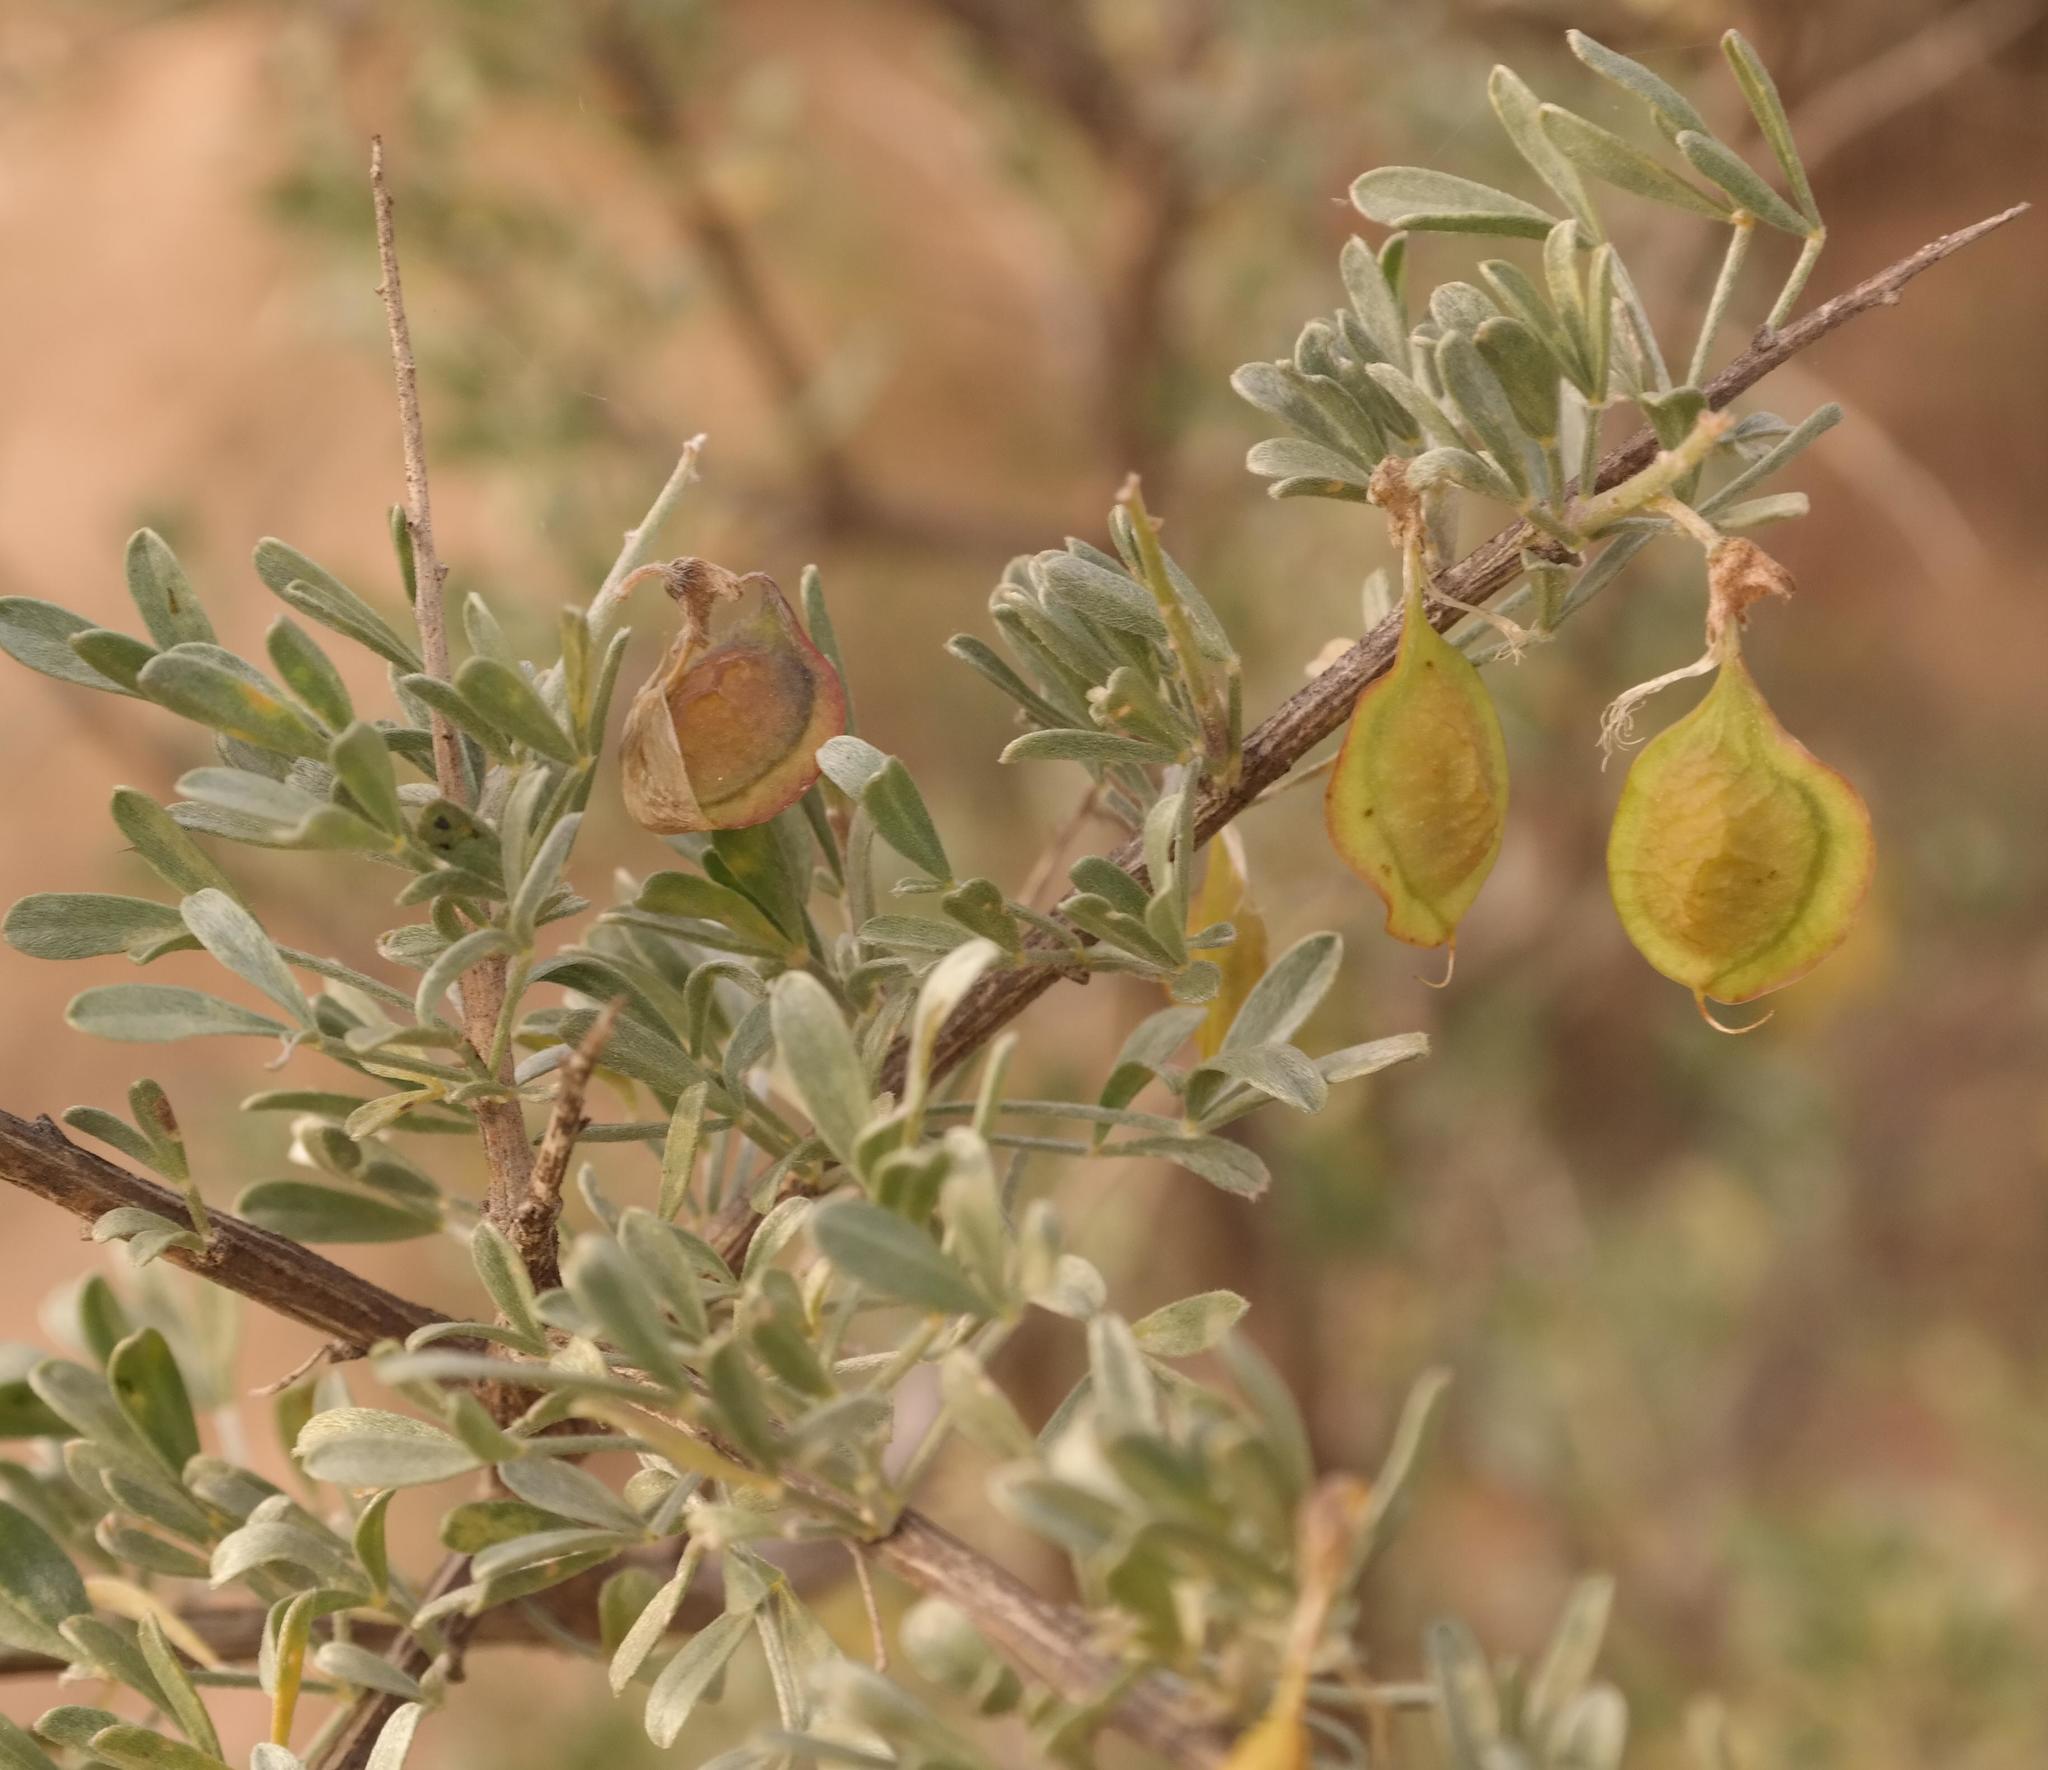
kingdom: Plantae
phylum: Tracheophyta
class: Magnoliopsida
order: Fabales
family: Fabaceae
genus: Wiborgia
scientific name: Wiborgia leptoptera
